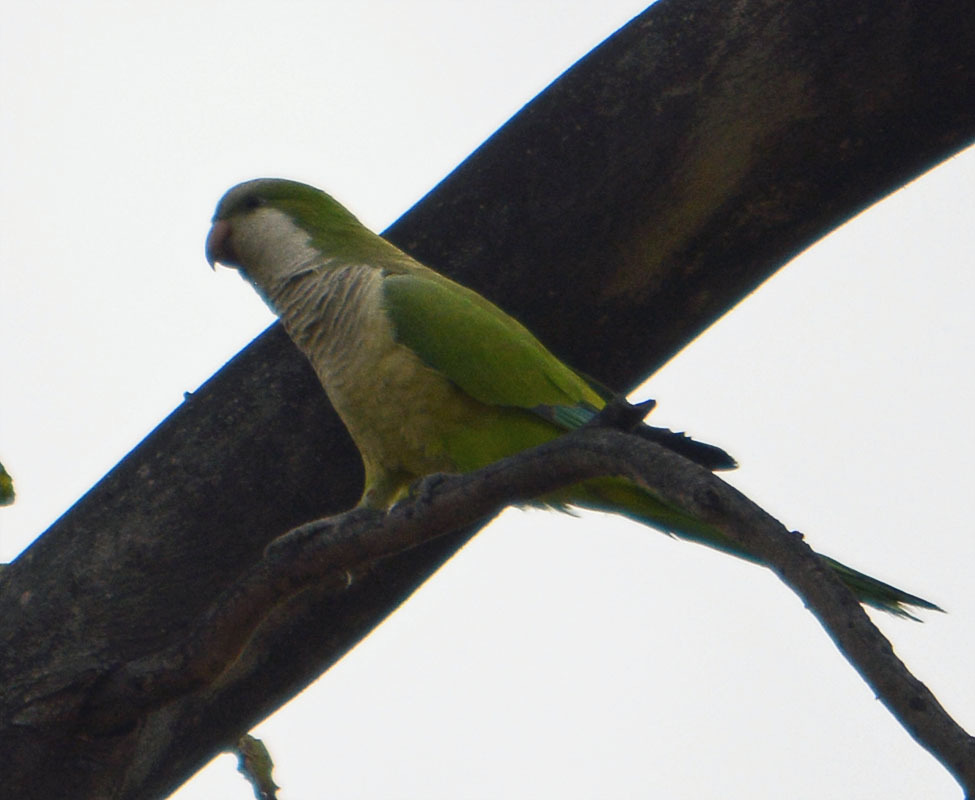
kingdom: Animalia
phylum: Chordata
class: Aves
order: Psittaciformes
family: Psittacidae
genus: Myiopsitta
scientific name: Myiopsitta monachus
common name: Monk parakeet
